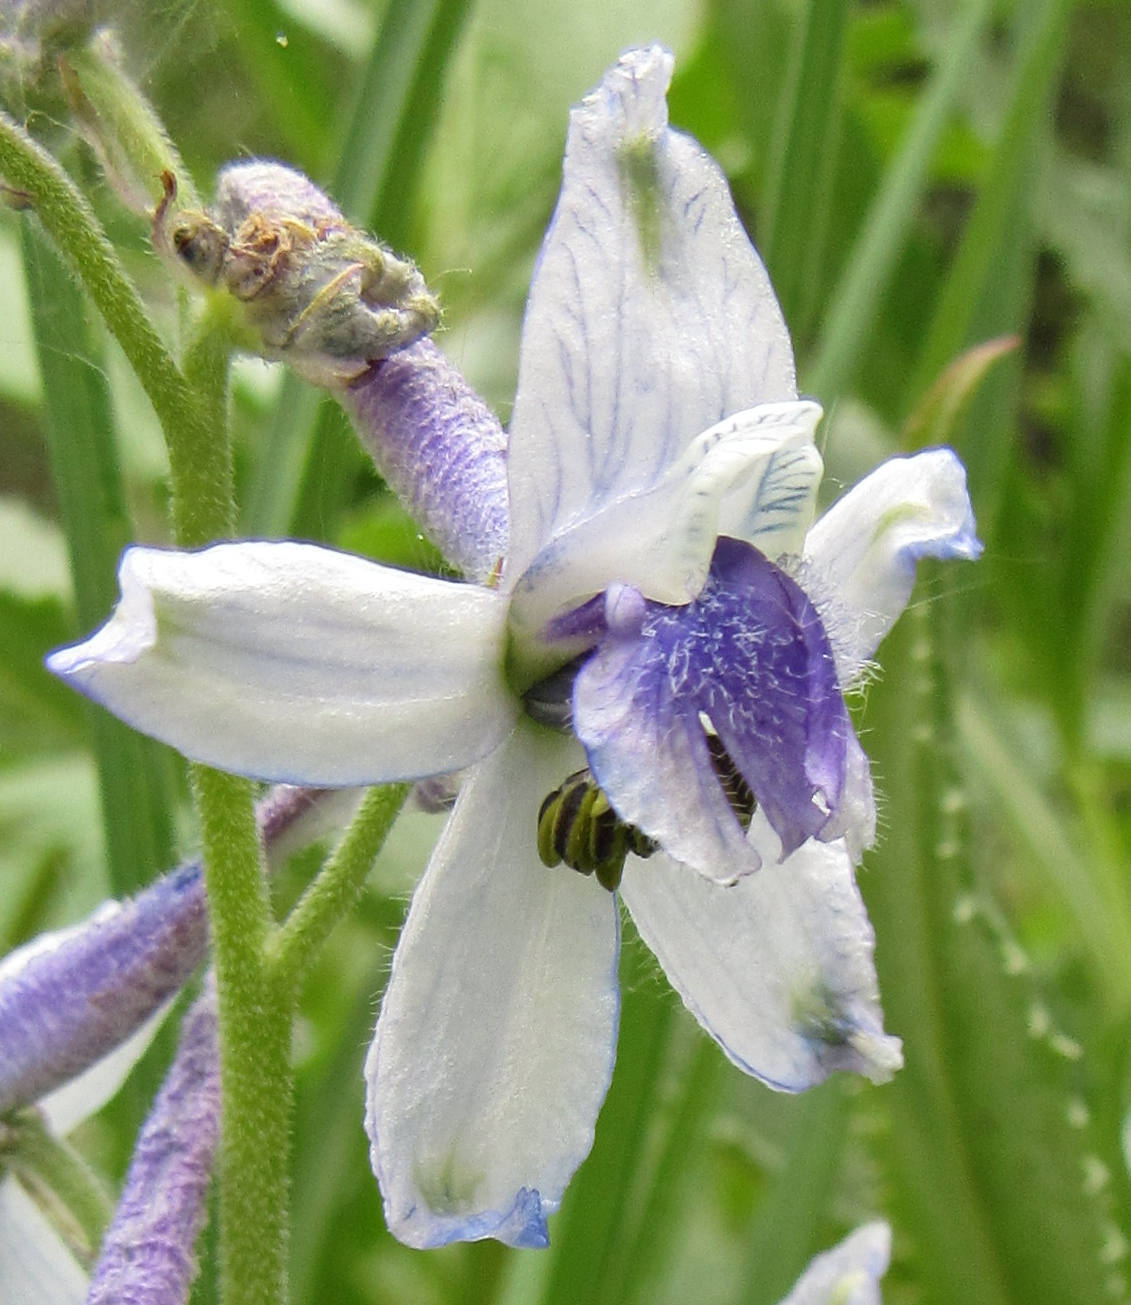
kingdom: Plantae
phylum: Tracheophyta
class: Magnoliopsida
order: Ranunculales
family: Ranunculaceae
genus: Delphinium
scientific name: Delphinium nuttallianum
